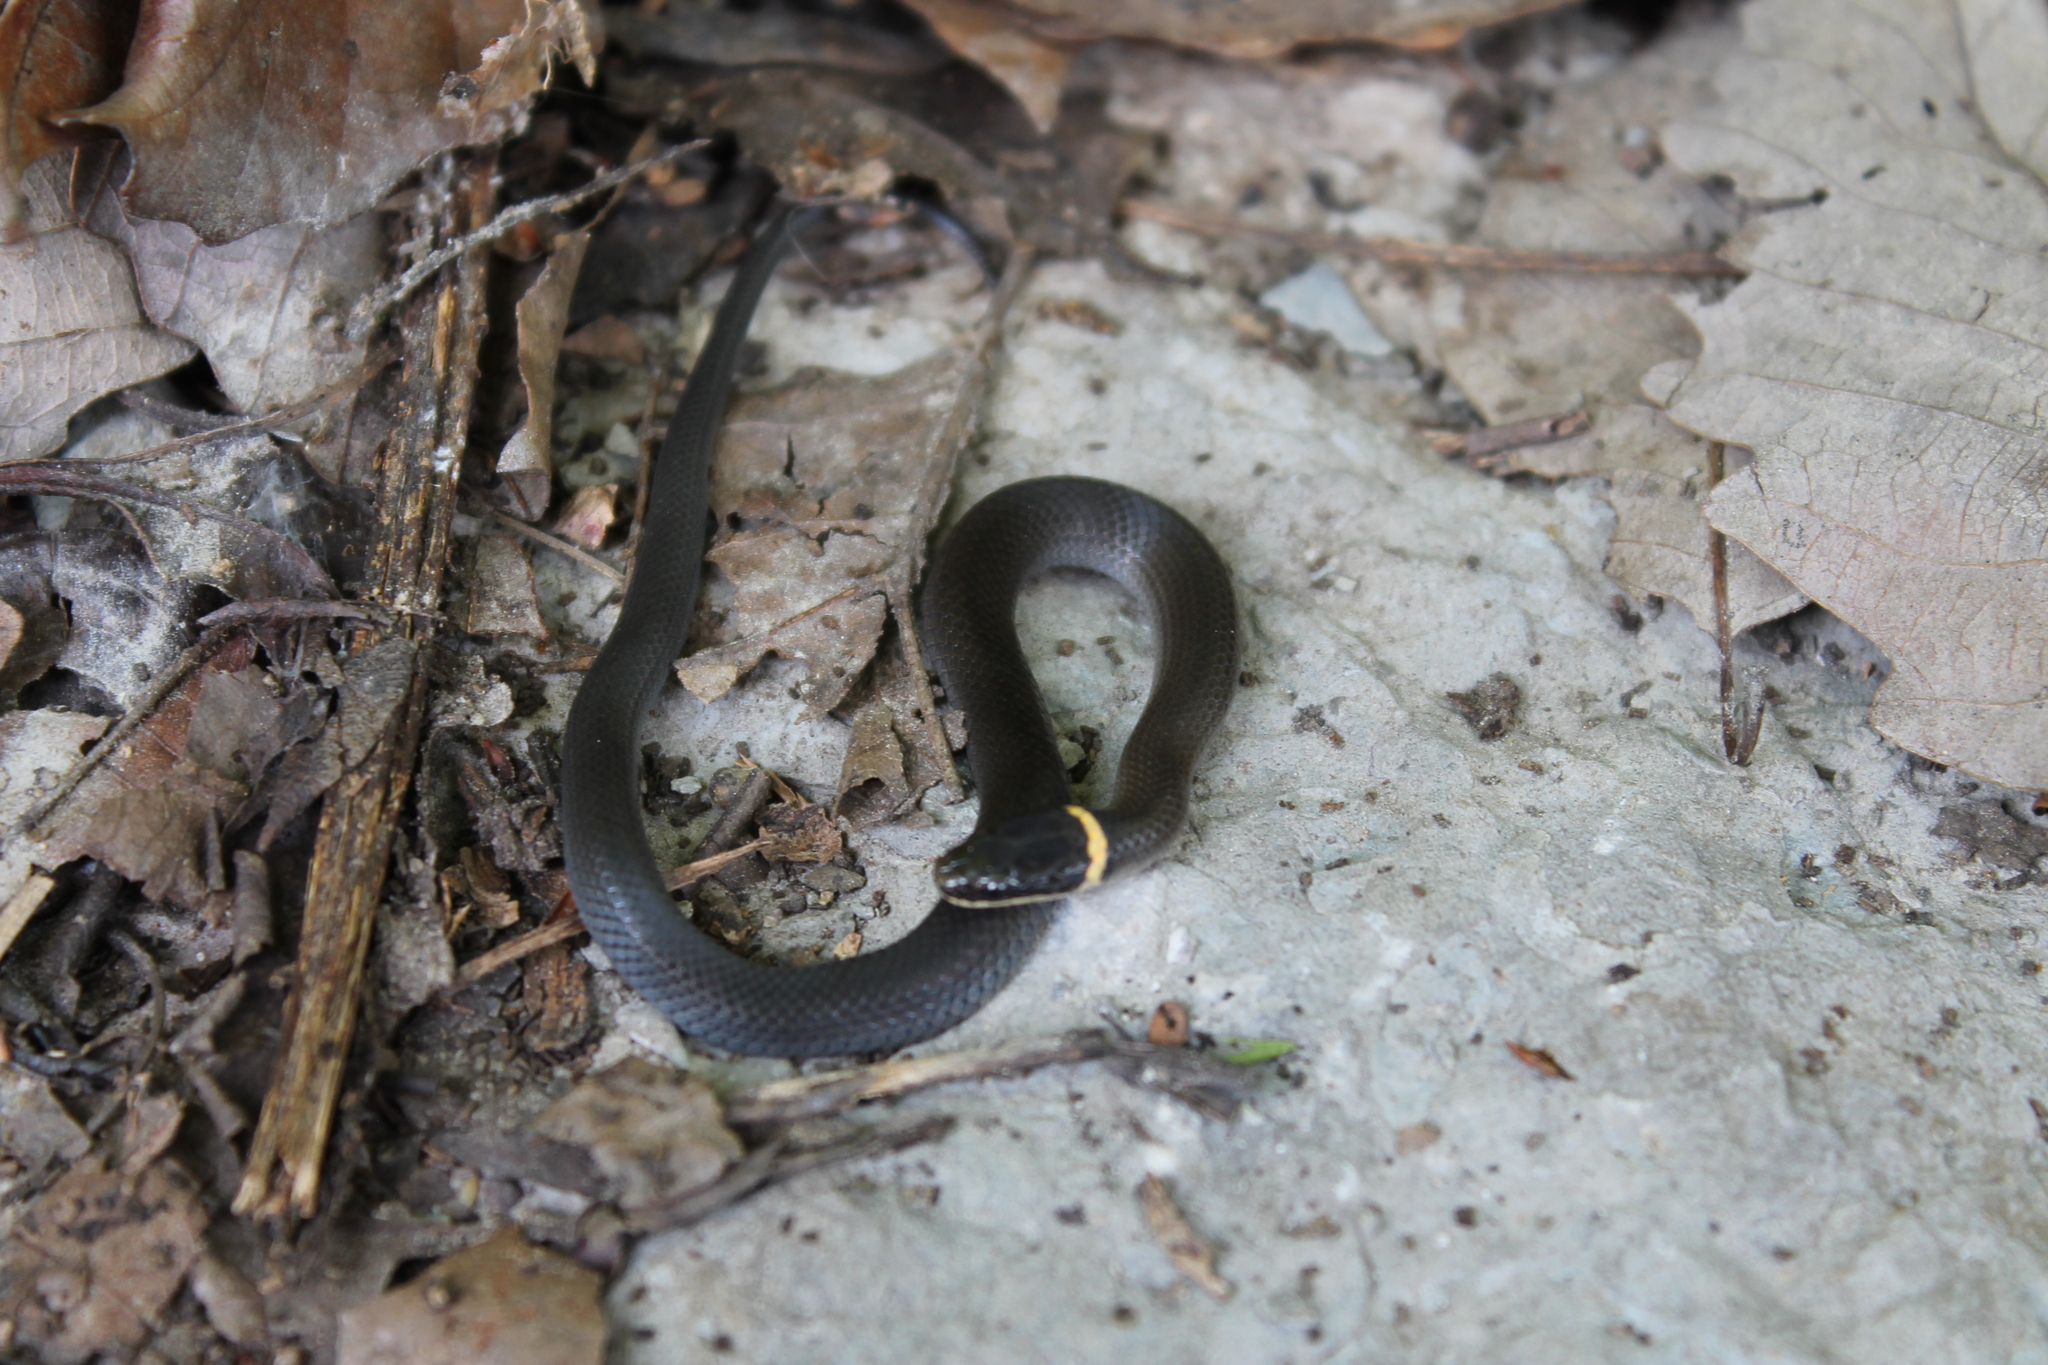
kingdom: Animalia
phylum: Chordata
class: Squamata
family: Colubridae
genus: Diadophis
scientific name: Diadophis punctatus
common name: Ringneck snake
